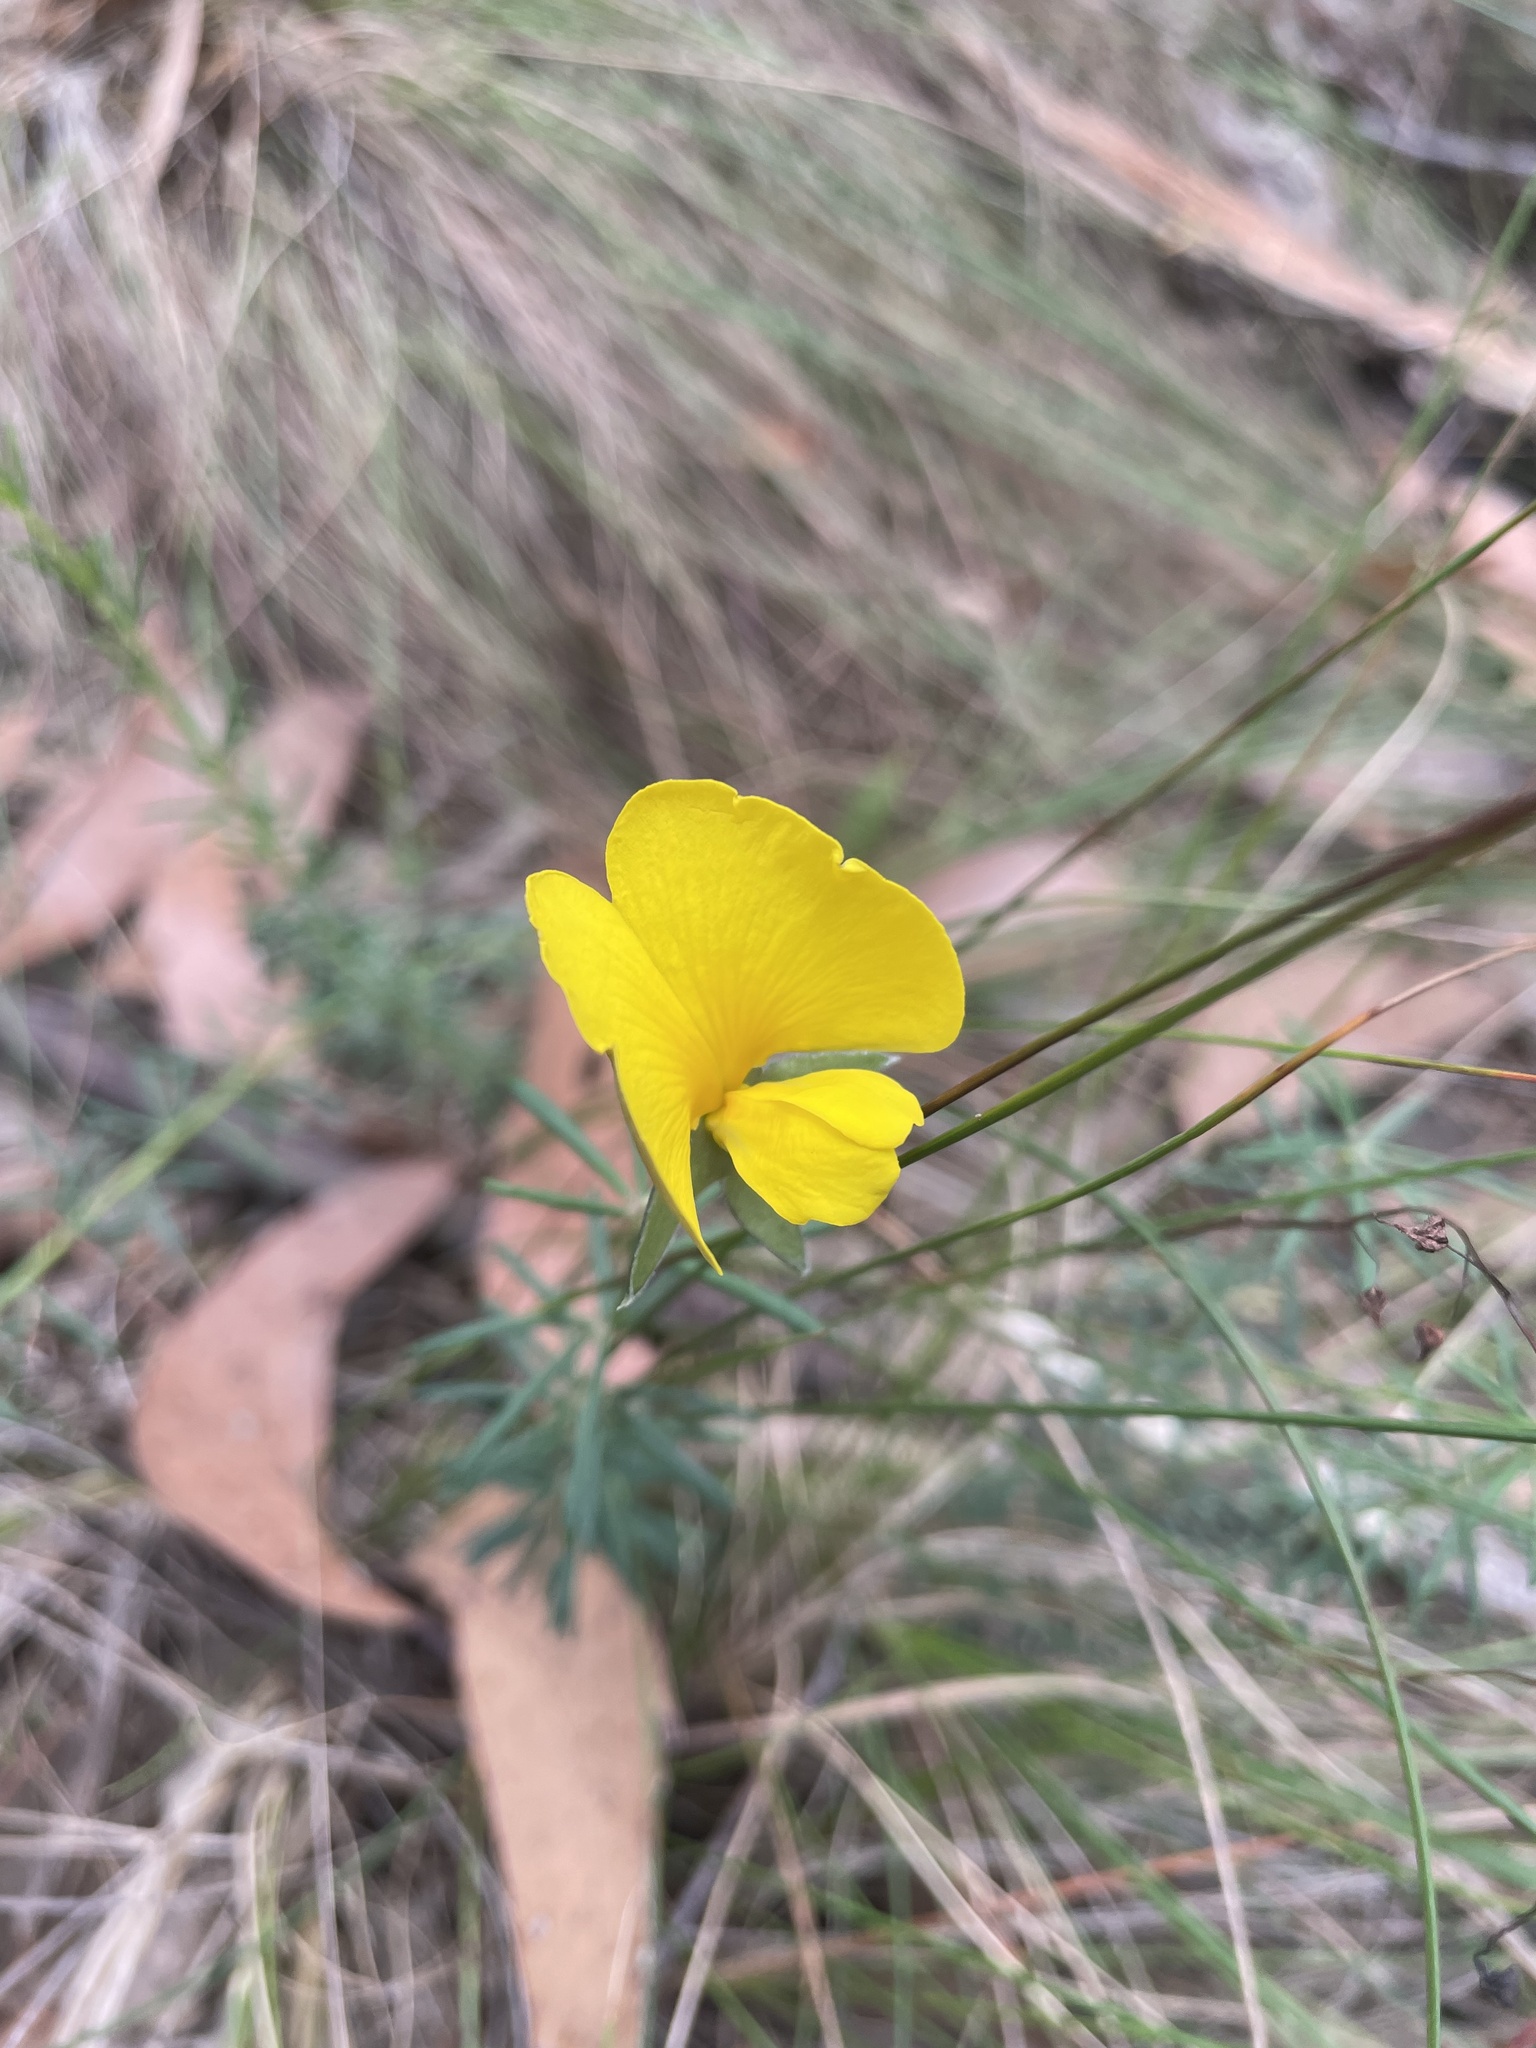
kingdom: Plantae
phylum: Tracheophyta
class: Magnoliopsida
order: Fabales
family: Fabaceae
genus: Gompholobium
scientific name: Gompholobium huegelii
